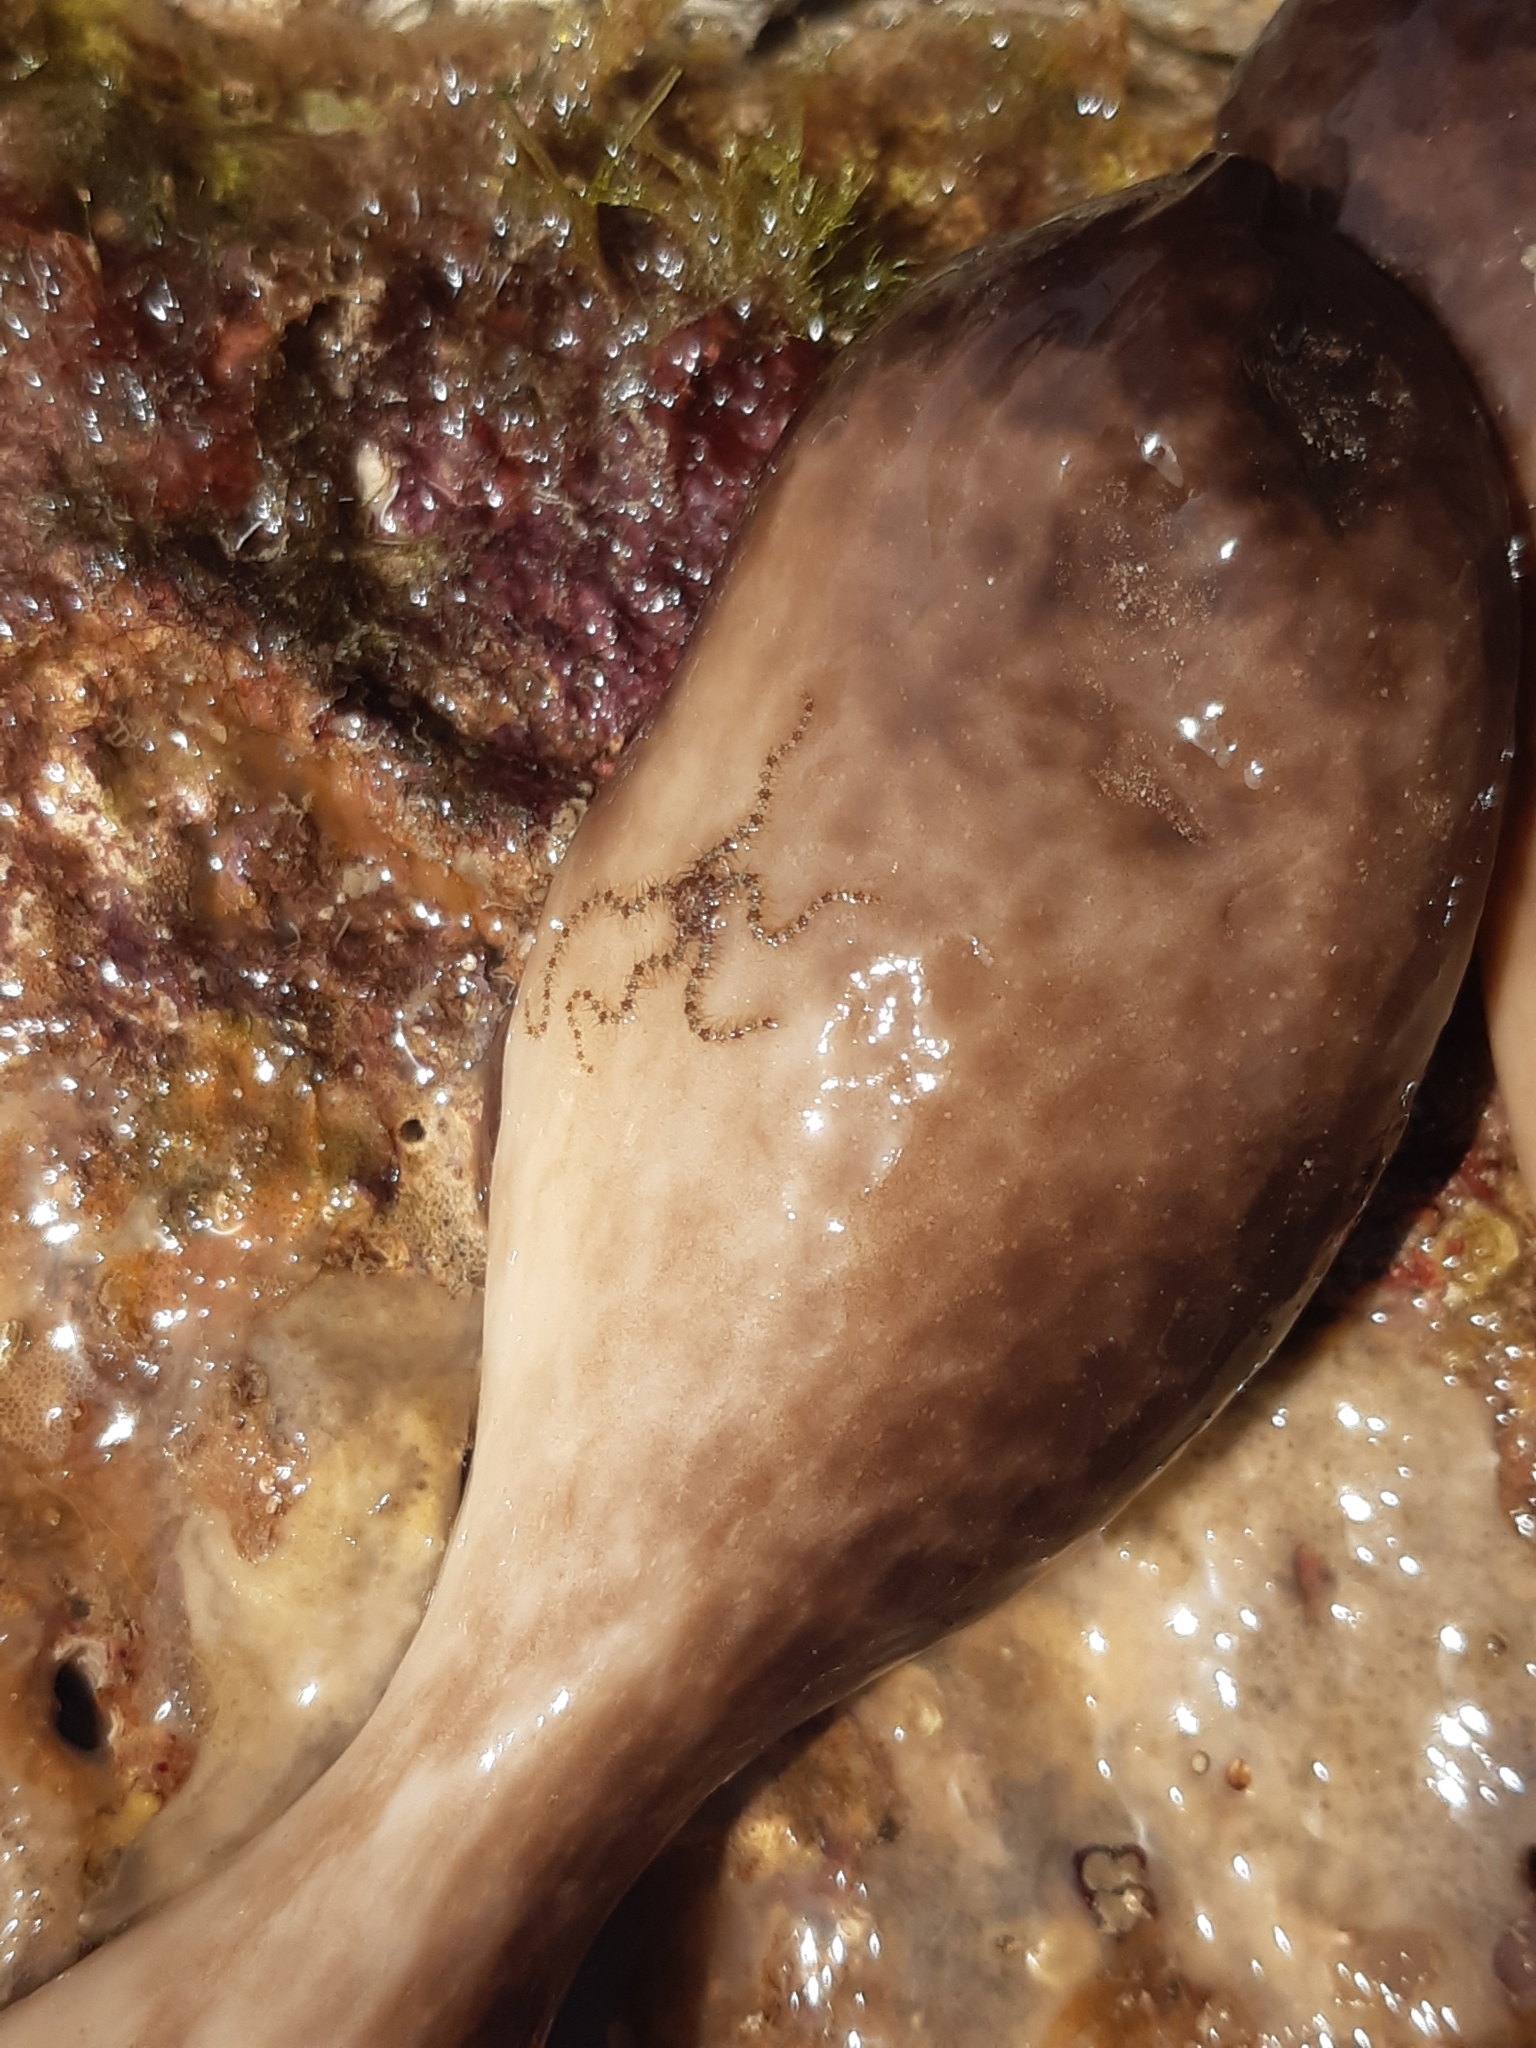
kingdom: Animalia
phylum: Porifera
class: Demospongiae
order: Chondrosiida
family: Chondrosiidae
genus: Chondrosia
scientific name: Chondrosia reniformis
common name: Chicken liver sponge
